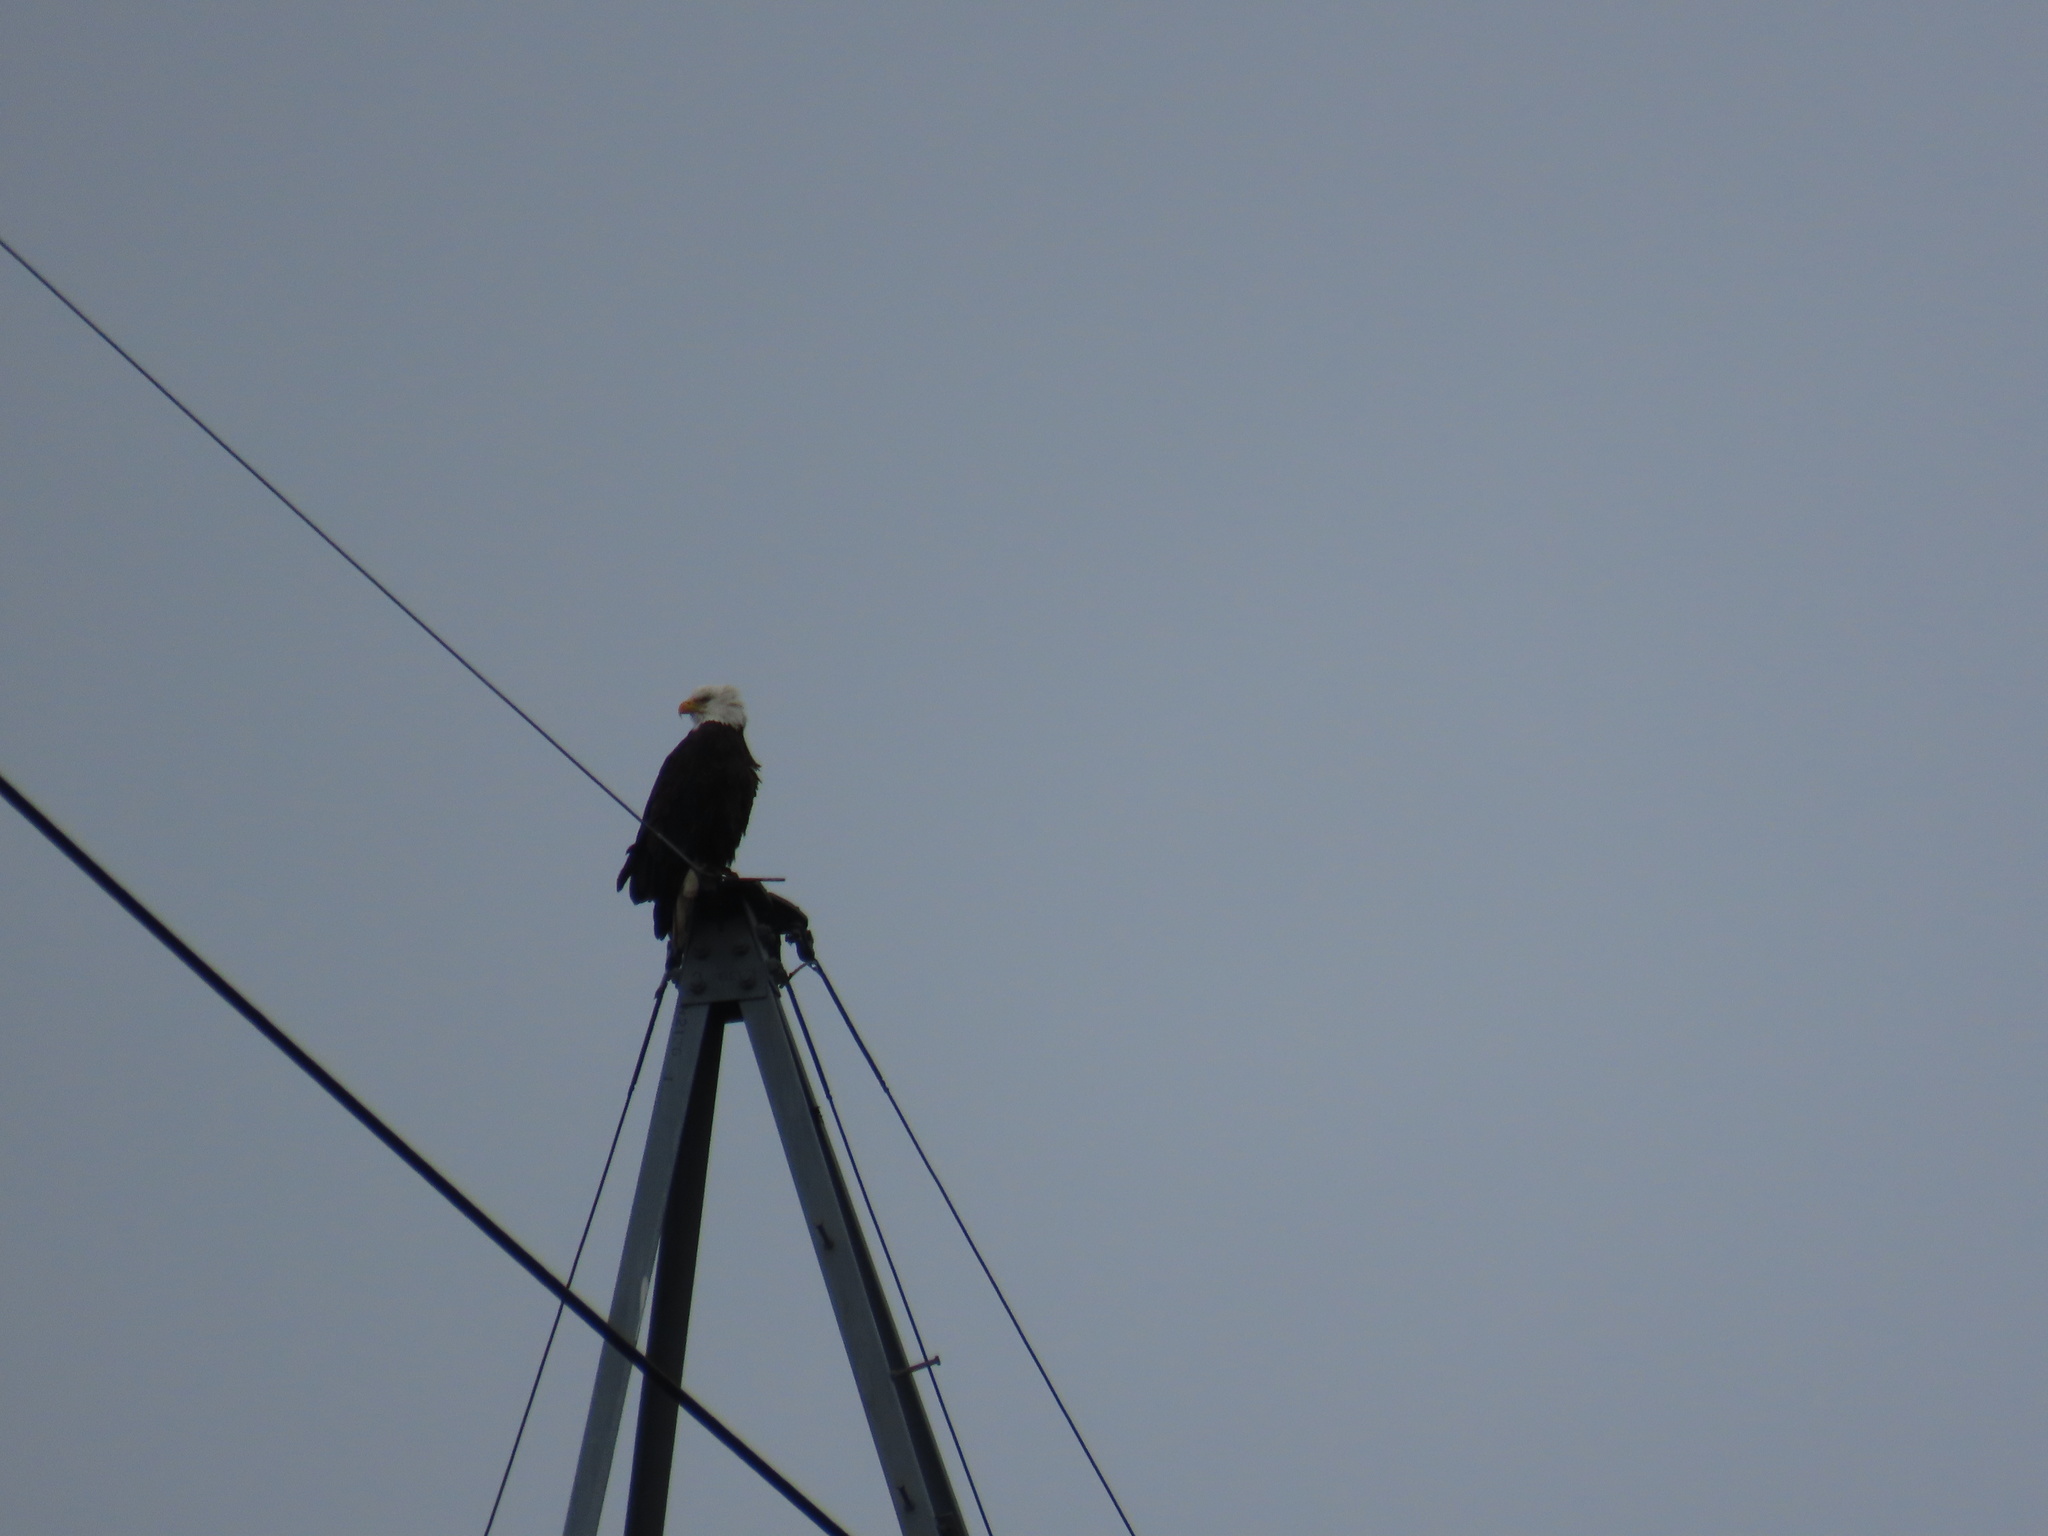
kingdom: Animalia
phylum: Chordata
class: Aves
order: Accipitriformes
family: Accipitridae
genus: Haliaeetus
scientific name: Haliaeetus leucocephalus
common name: Bald eagle
